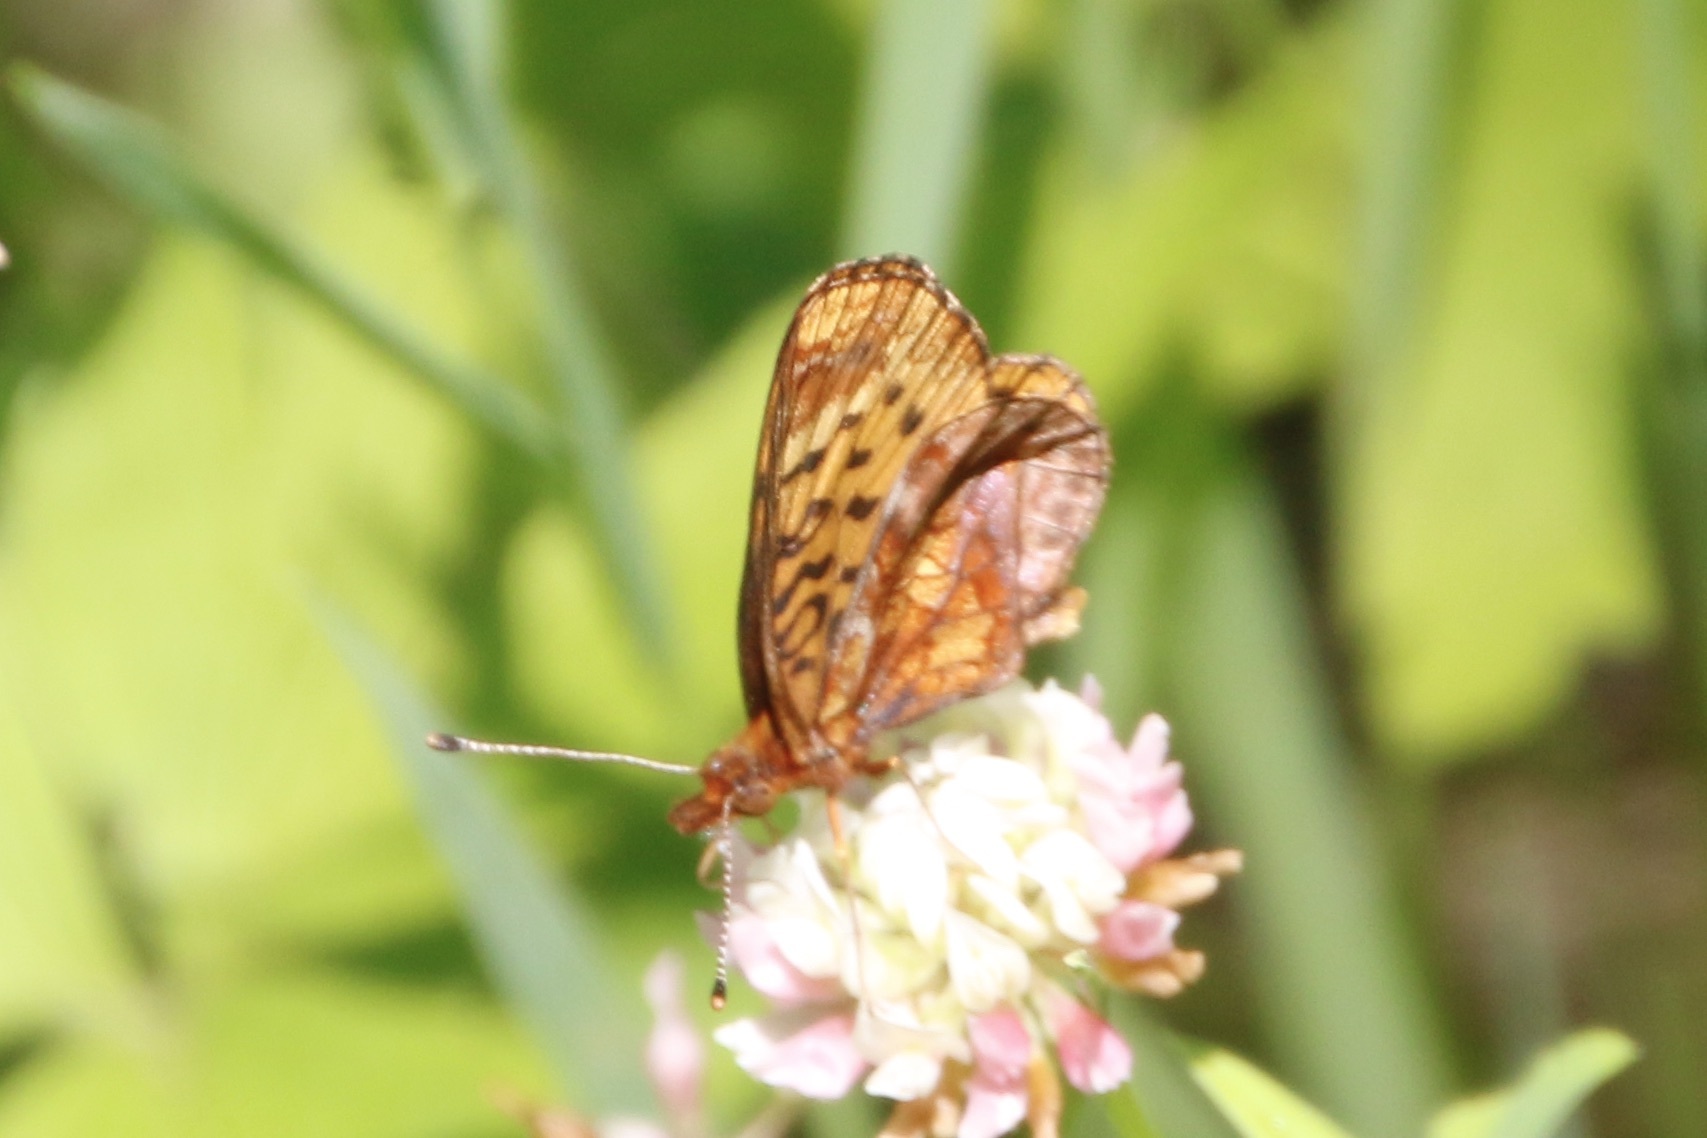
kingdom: Animalia
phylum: Arthropoda
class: Insecta
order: Lepidoptera
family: Nymphalidae
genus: Clossiana
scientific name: Clossiana toddi
